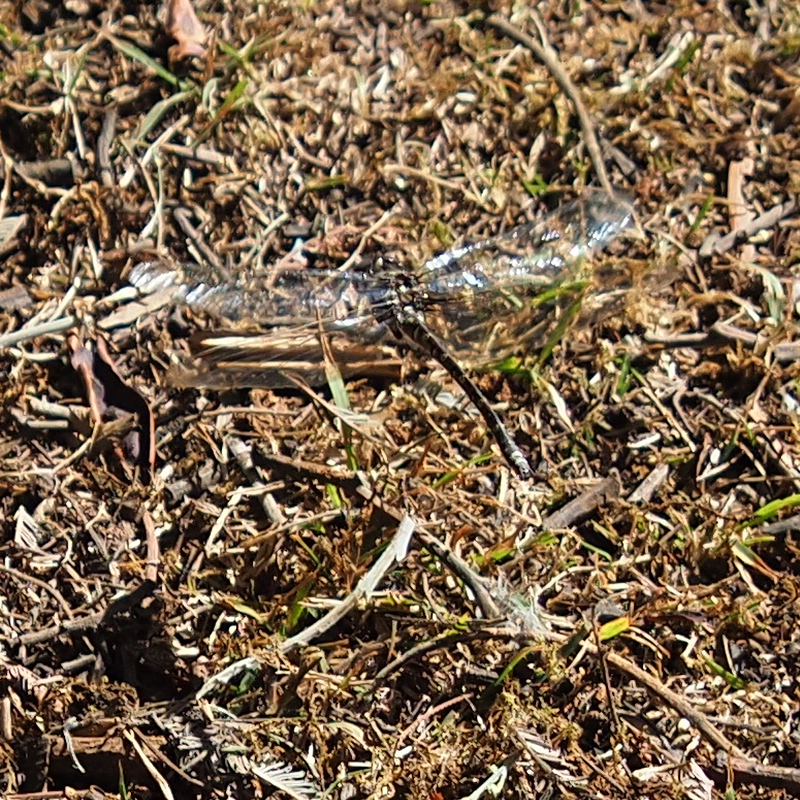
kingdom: Animalia
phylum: Arthropoda
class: Insecta
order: Odonata
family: Synthemistidae
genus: Synthemis
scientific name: Synthemis tasmanica
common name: Tasmanian swamp tigertail
